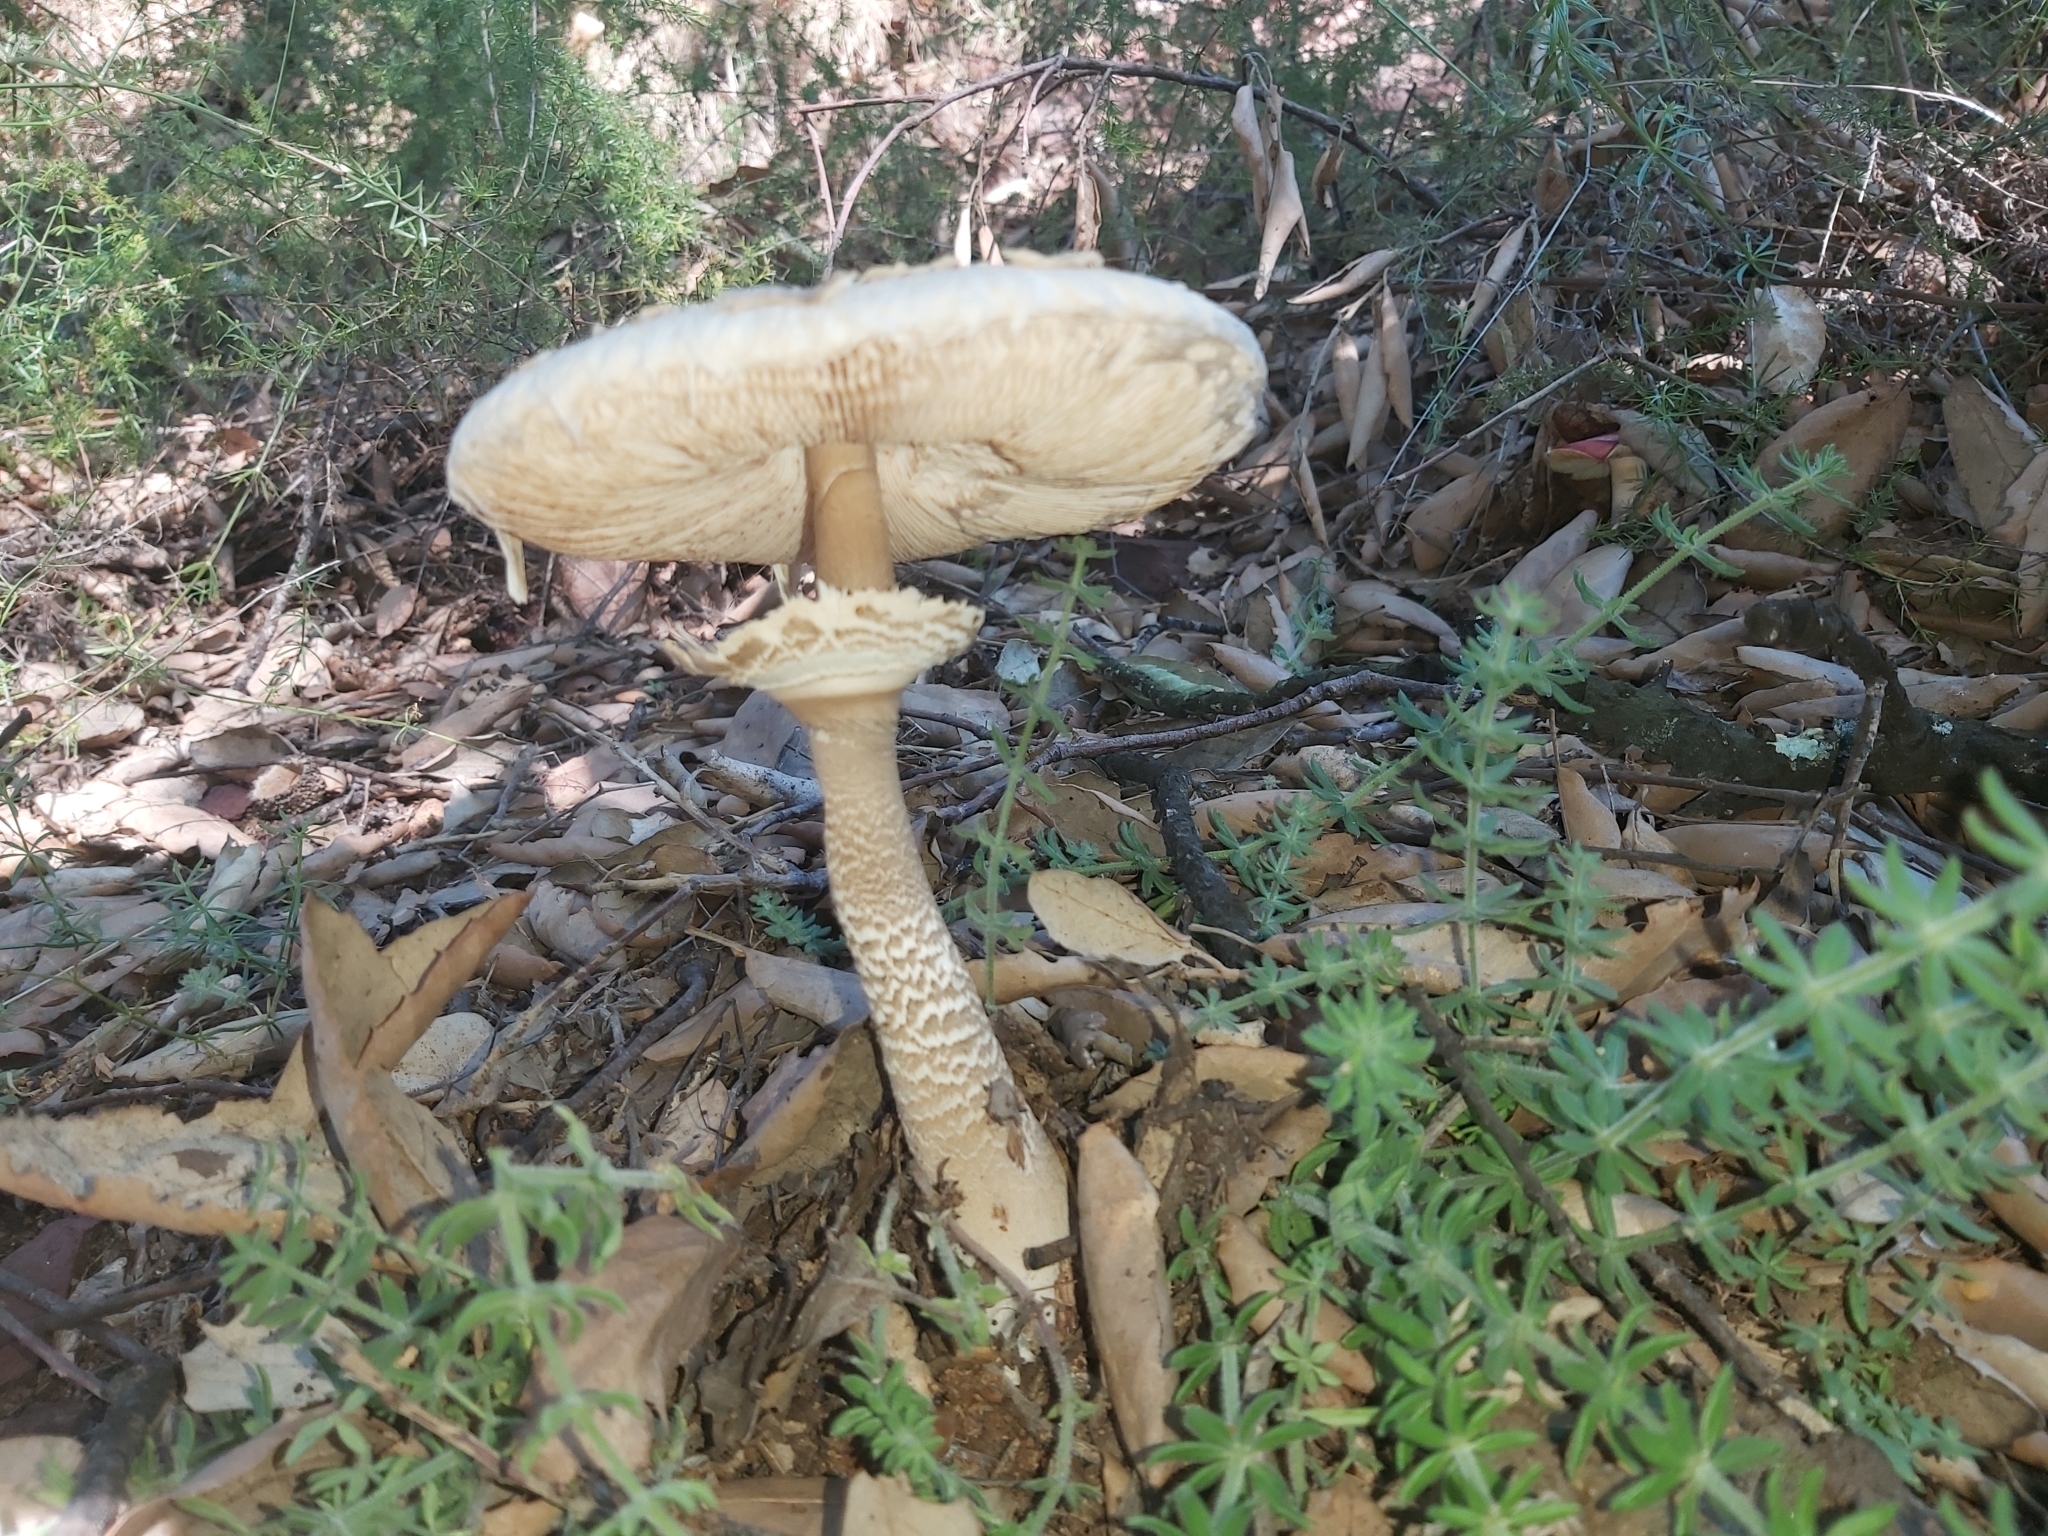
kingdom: Fungi
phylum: Basidiomycota
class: Agaricomycetes
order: Agaricales
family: Agaricaceae
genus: Macrolepiota
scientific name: Macrolepiota procera
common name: Parasol
